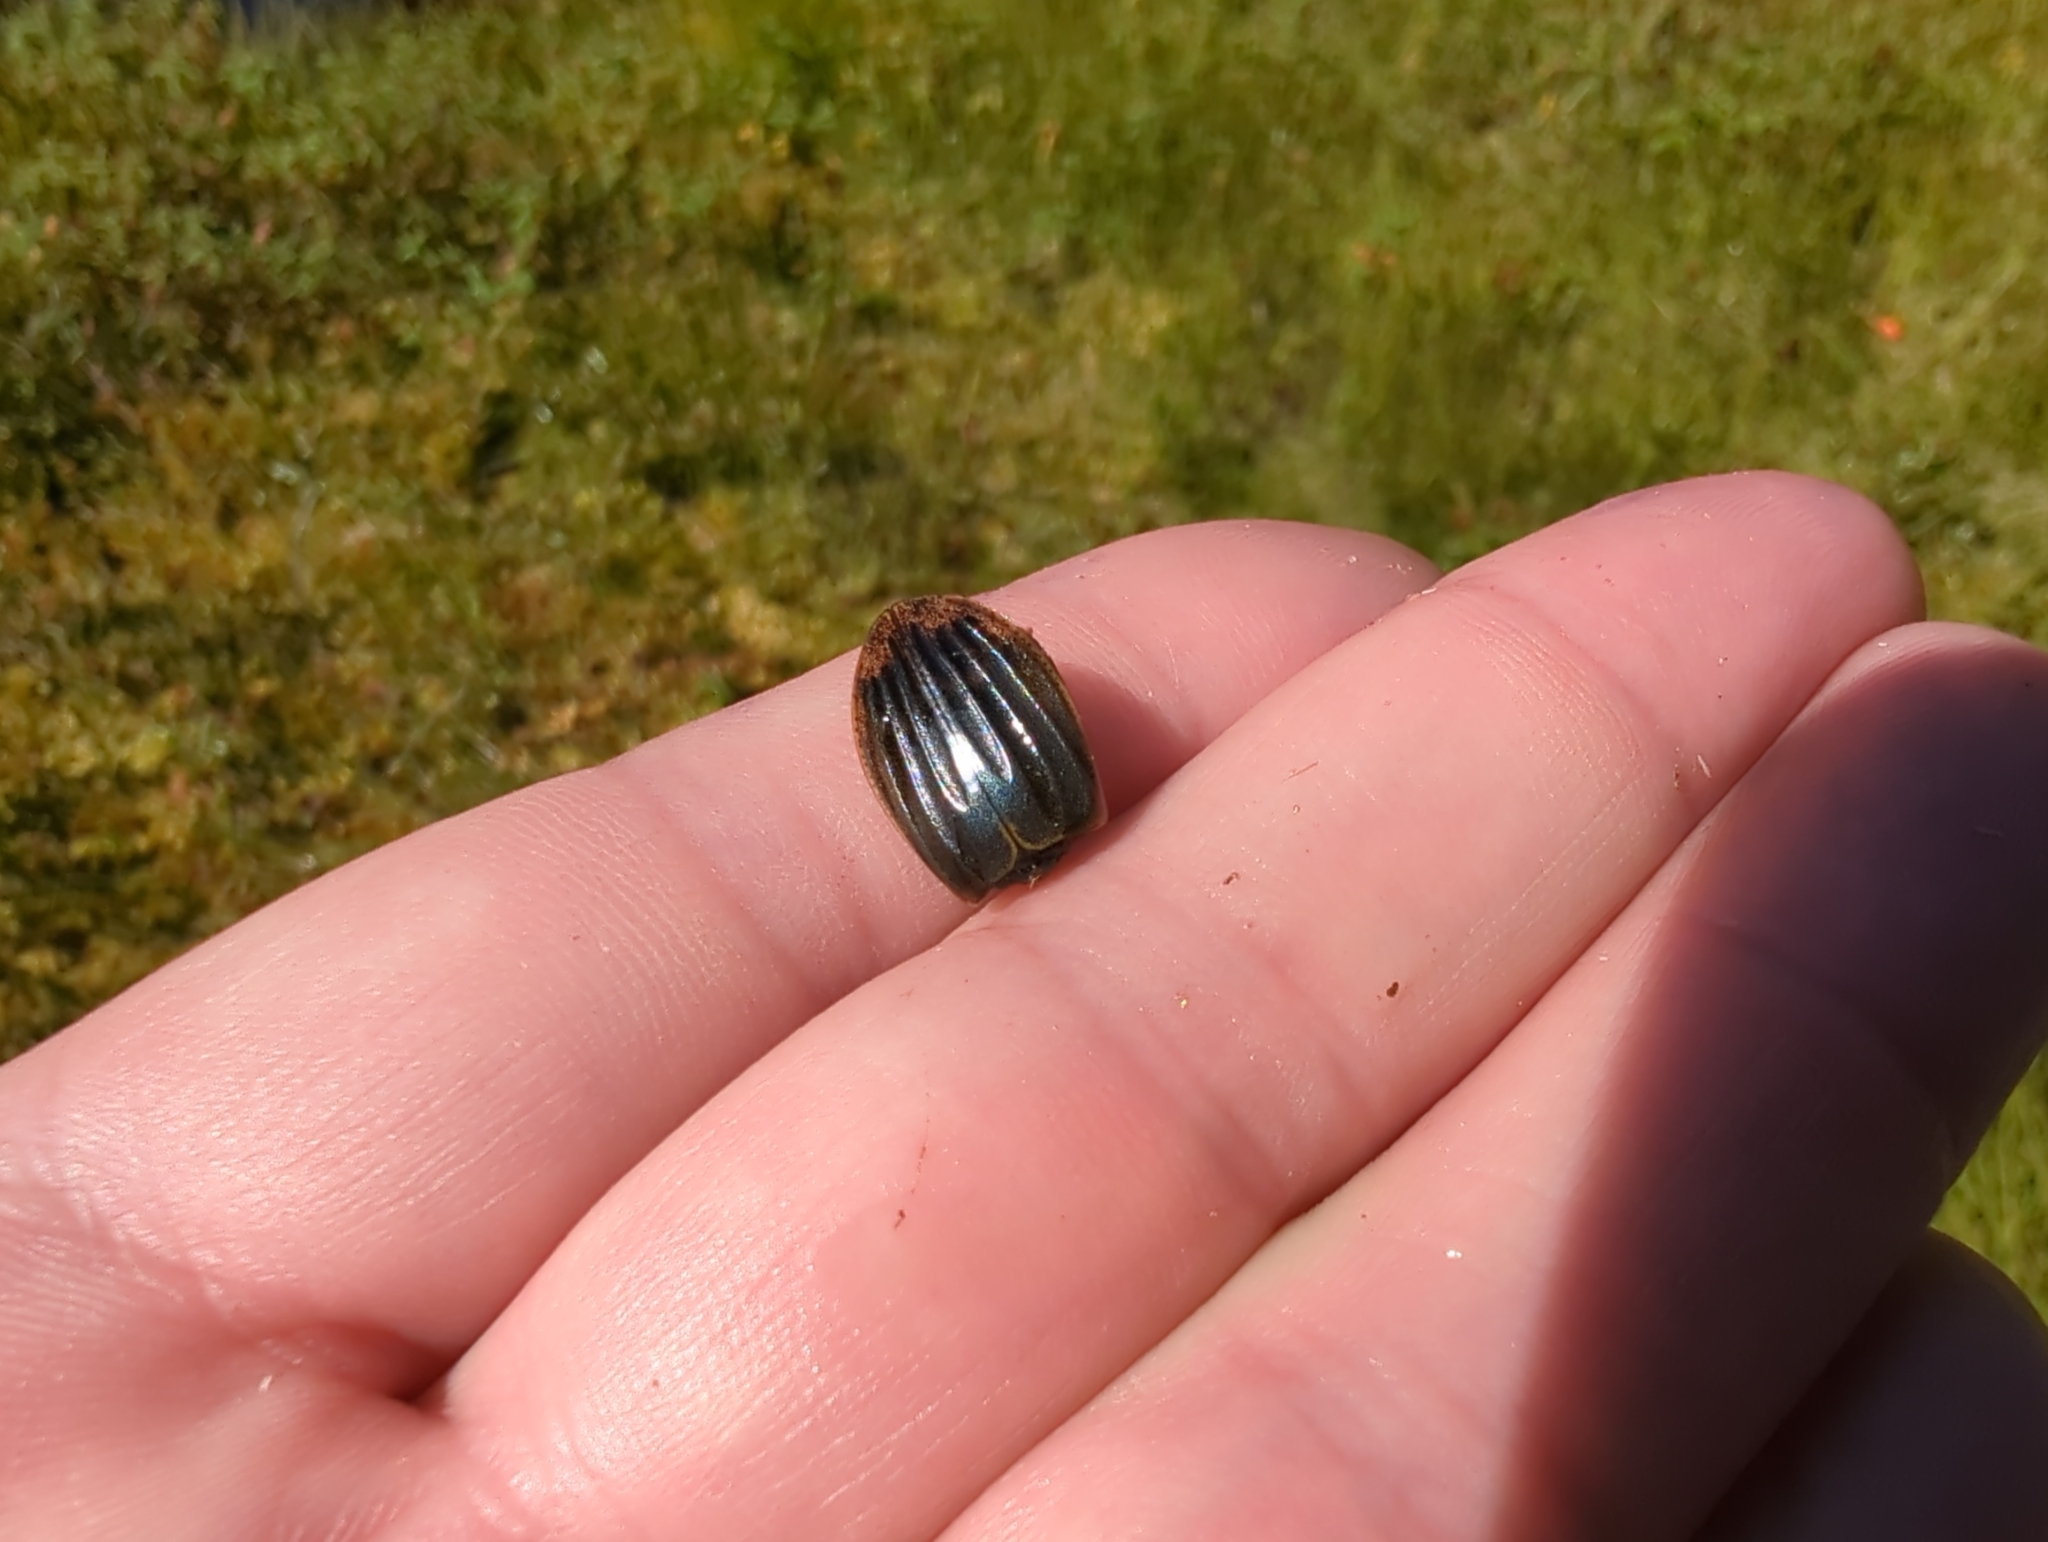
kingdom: Animalia
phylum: Arthropoda
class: Insecta
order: Coleoptera
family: Dytiscidae
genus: Acilius
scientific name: Acilius
